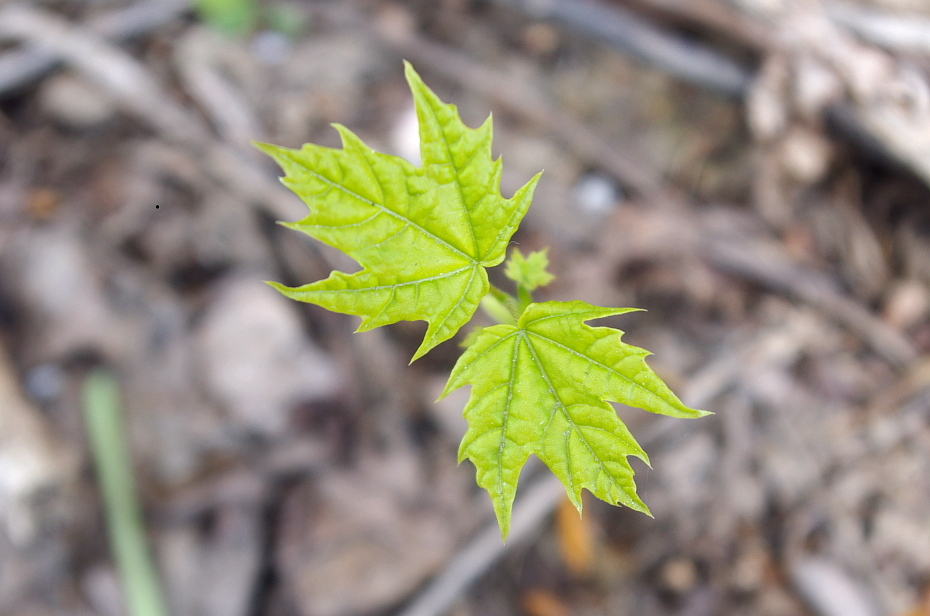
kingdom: Plantae
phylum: Tracheophyta
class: Magnoliopsida
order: Sapindales
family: Sapindaceae
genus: Acer
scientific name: Acer platanoides
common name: Norway maple
